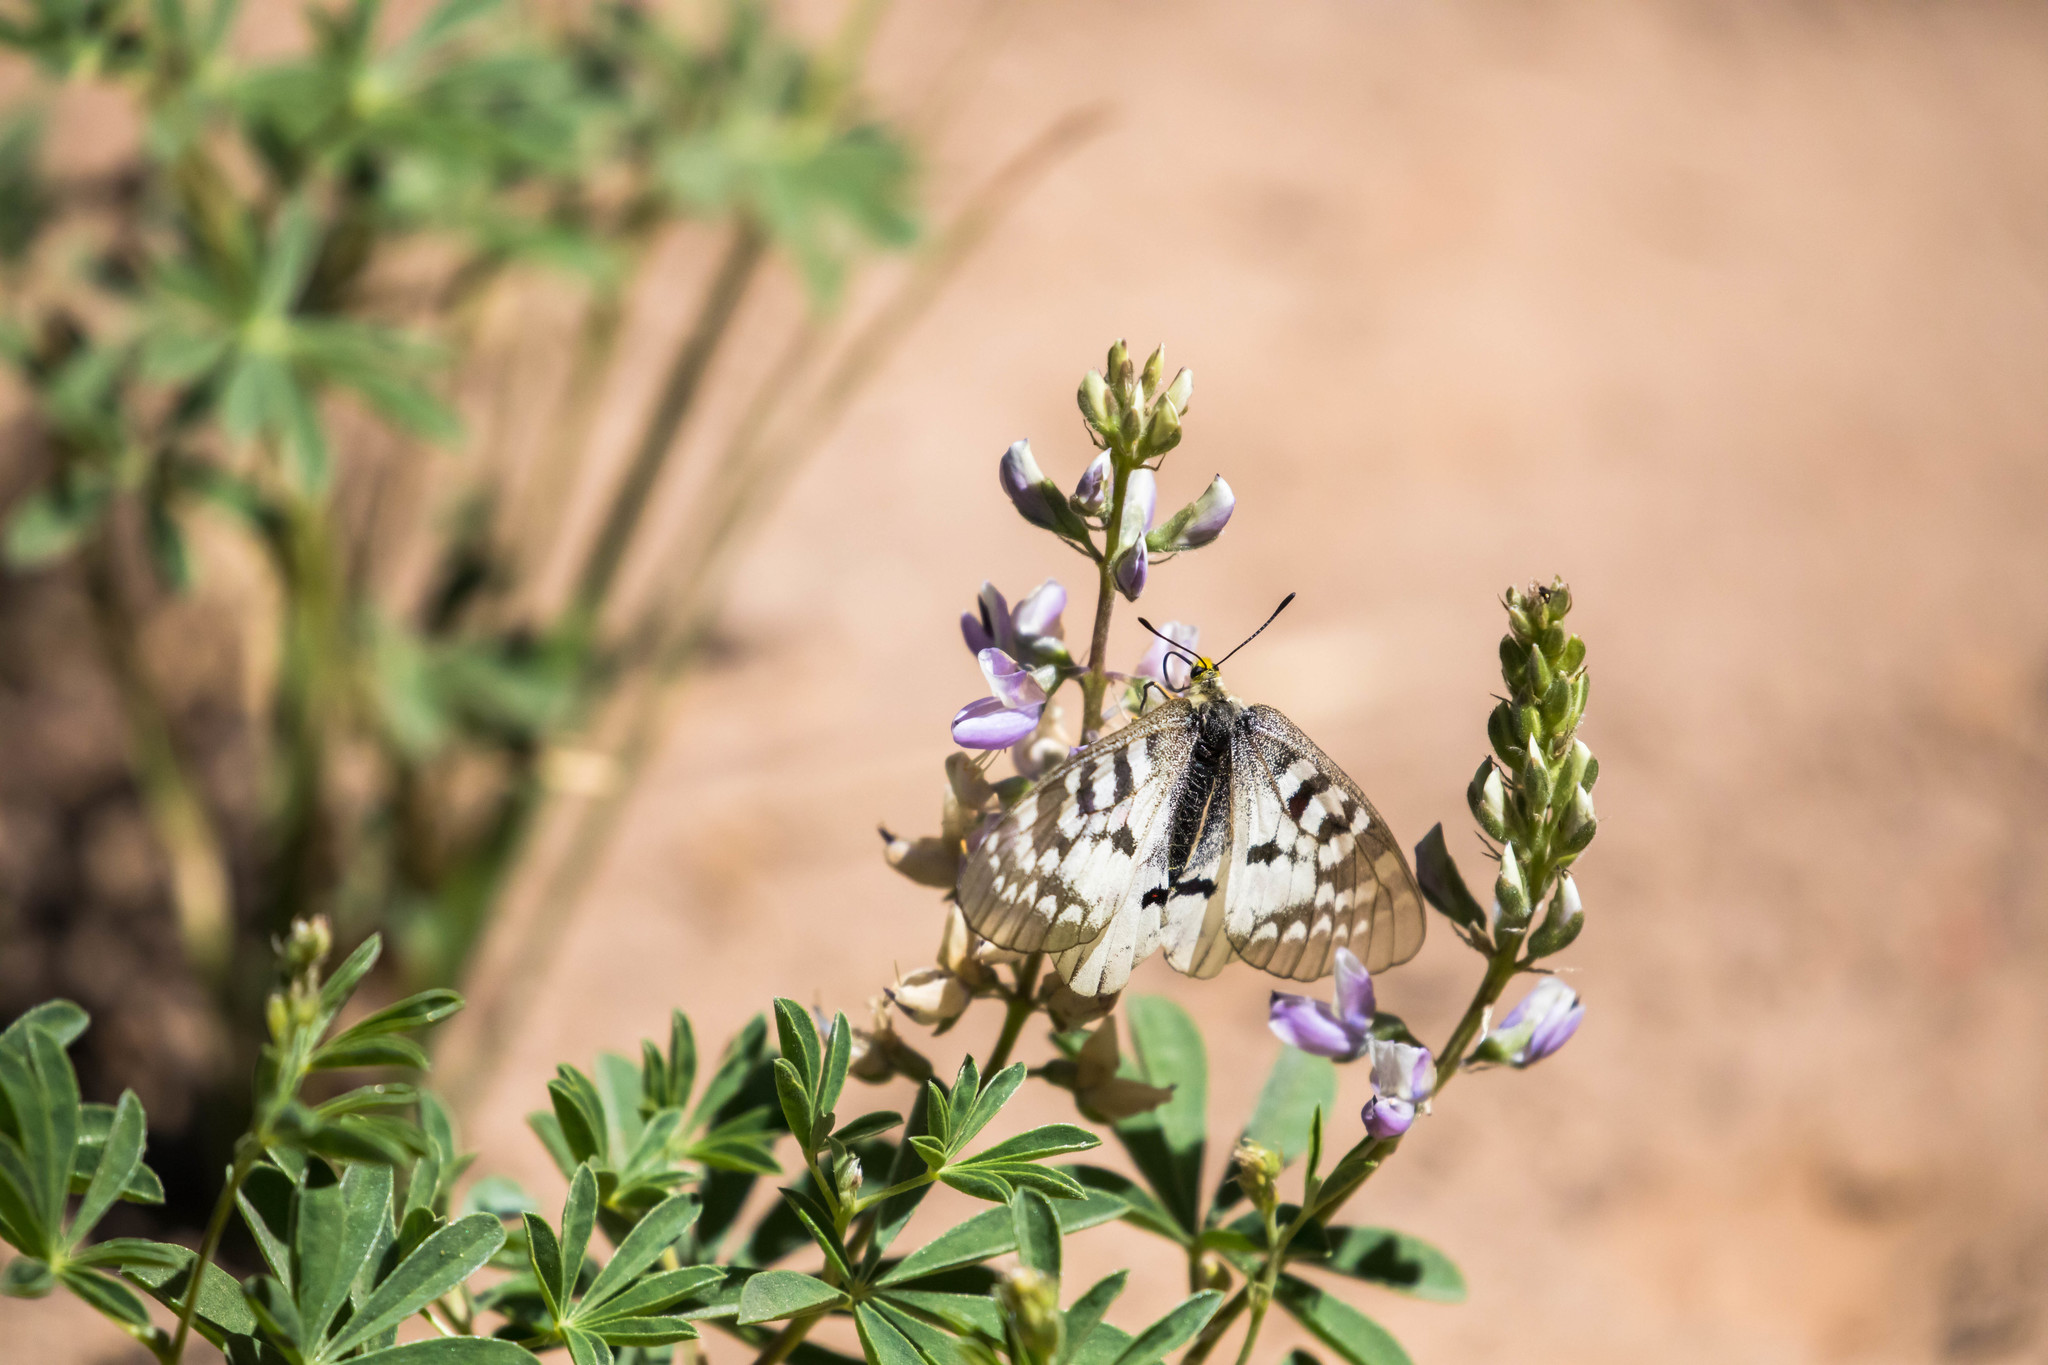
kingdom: Animalia
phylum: Arthropoda
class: Insecta
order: Lepidoptera
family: Papilionidae
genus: Parnassius
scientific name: Parnassius clodius
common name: American apollo
